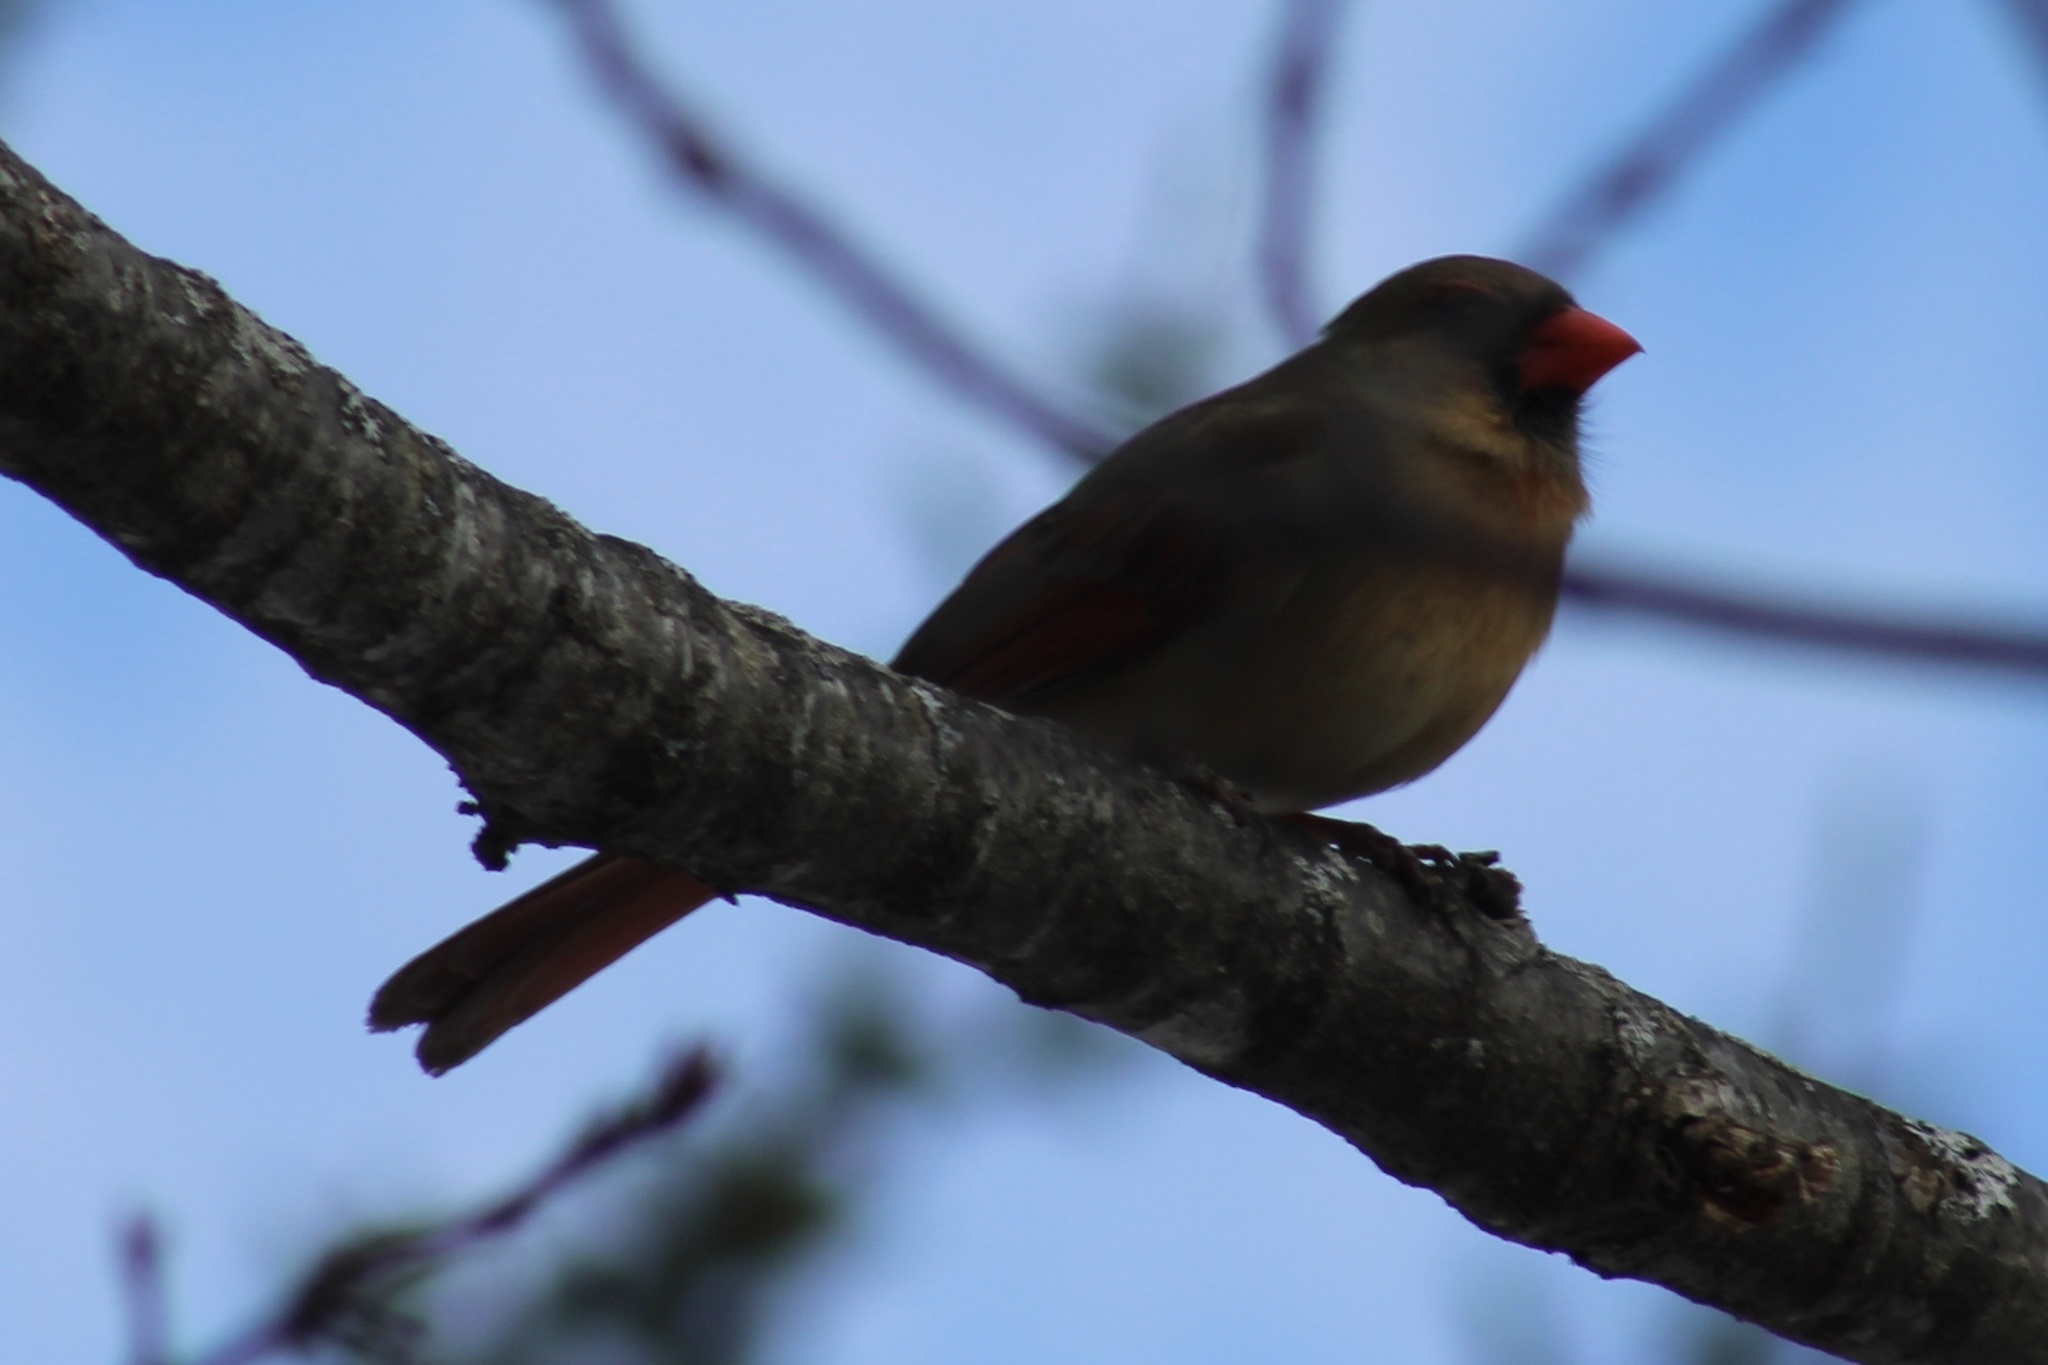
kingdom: Animalia
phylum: Chordata
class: Aves
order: Passeriformes
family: Cardinalidae
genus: Cardinalis
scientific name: Cardinalis cardinalis
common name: Northern cardinal
